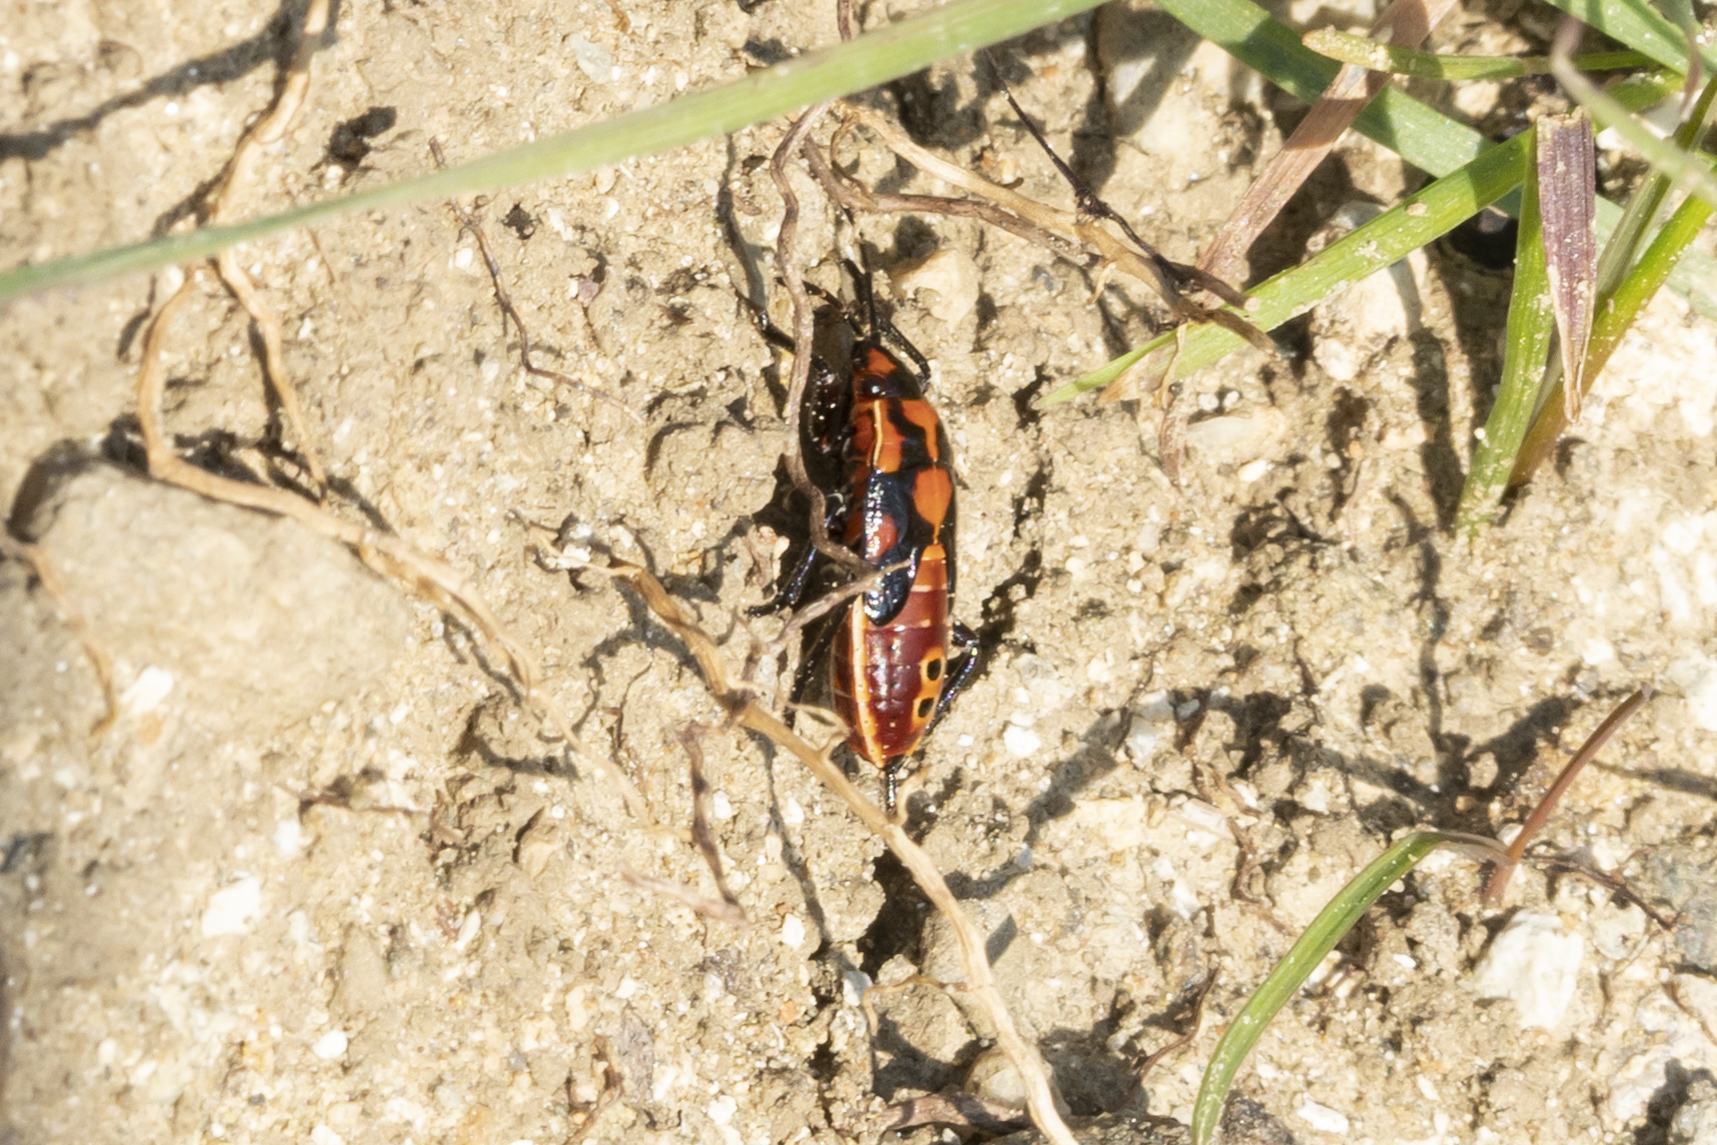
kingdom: Animalia
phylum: Arthropoda
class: Insecta
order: Hemiptera
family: Lygaeidae
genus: Spilostethus
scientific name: Spilostethus pandurus
